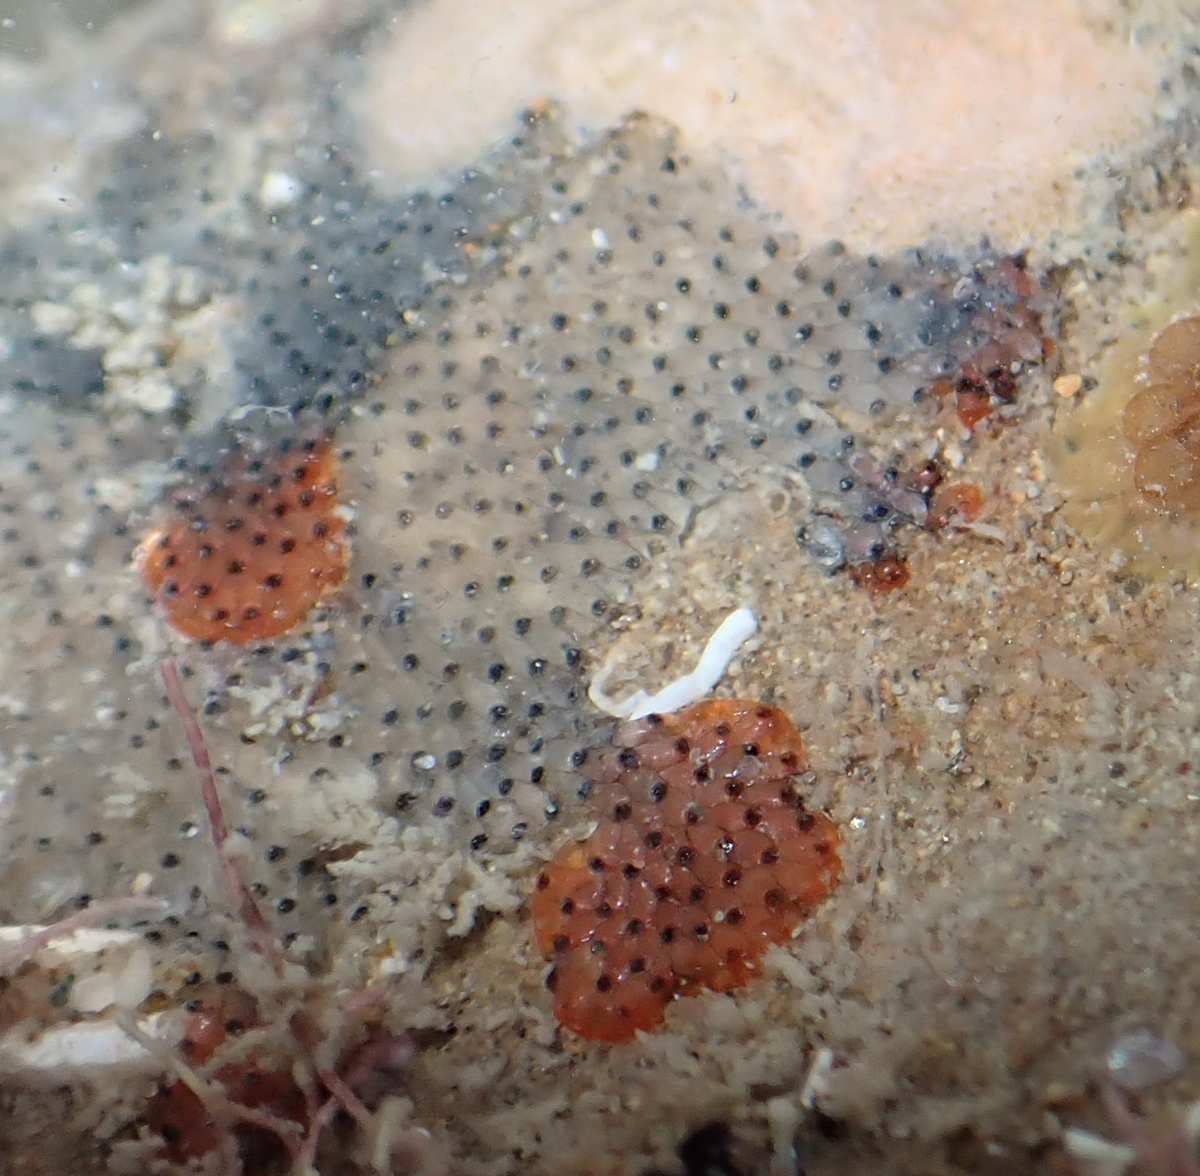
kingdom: Animalia
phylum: Bryozoa
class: Gymnolaemata
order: Cheilostomatida
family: Watersiporidae
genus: Watersipora
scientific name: Watersipora subatra
